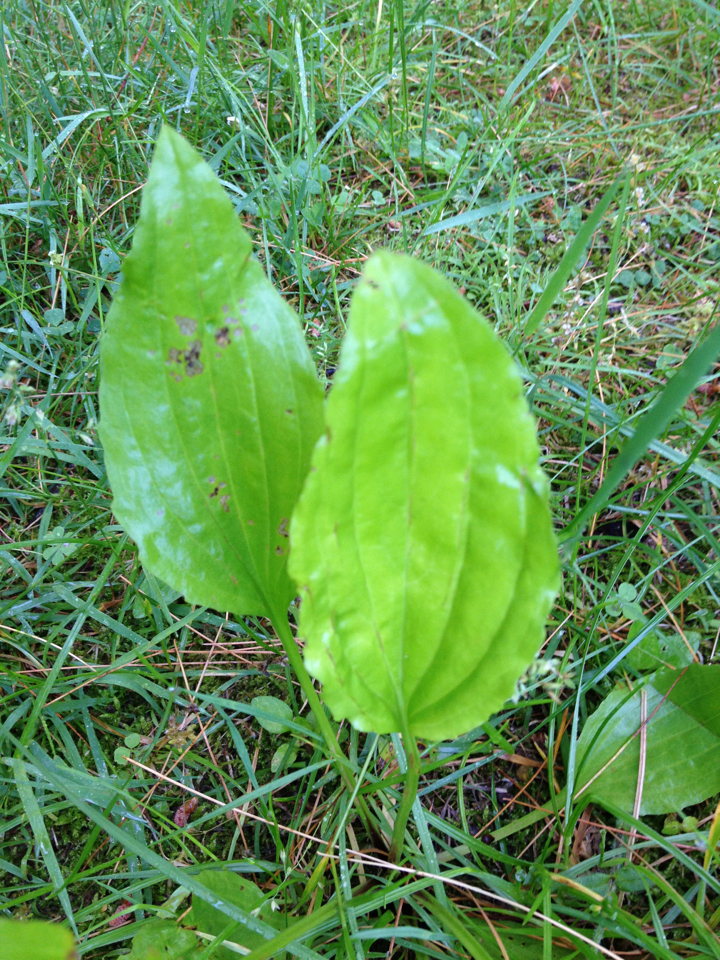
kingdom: Plantae
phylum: Tracheophyta
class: Magnoliopsida
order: Lamiales
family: Plantaginaceae
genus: Plantago
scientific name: Plantago major
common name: Common plantain
